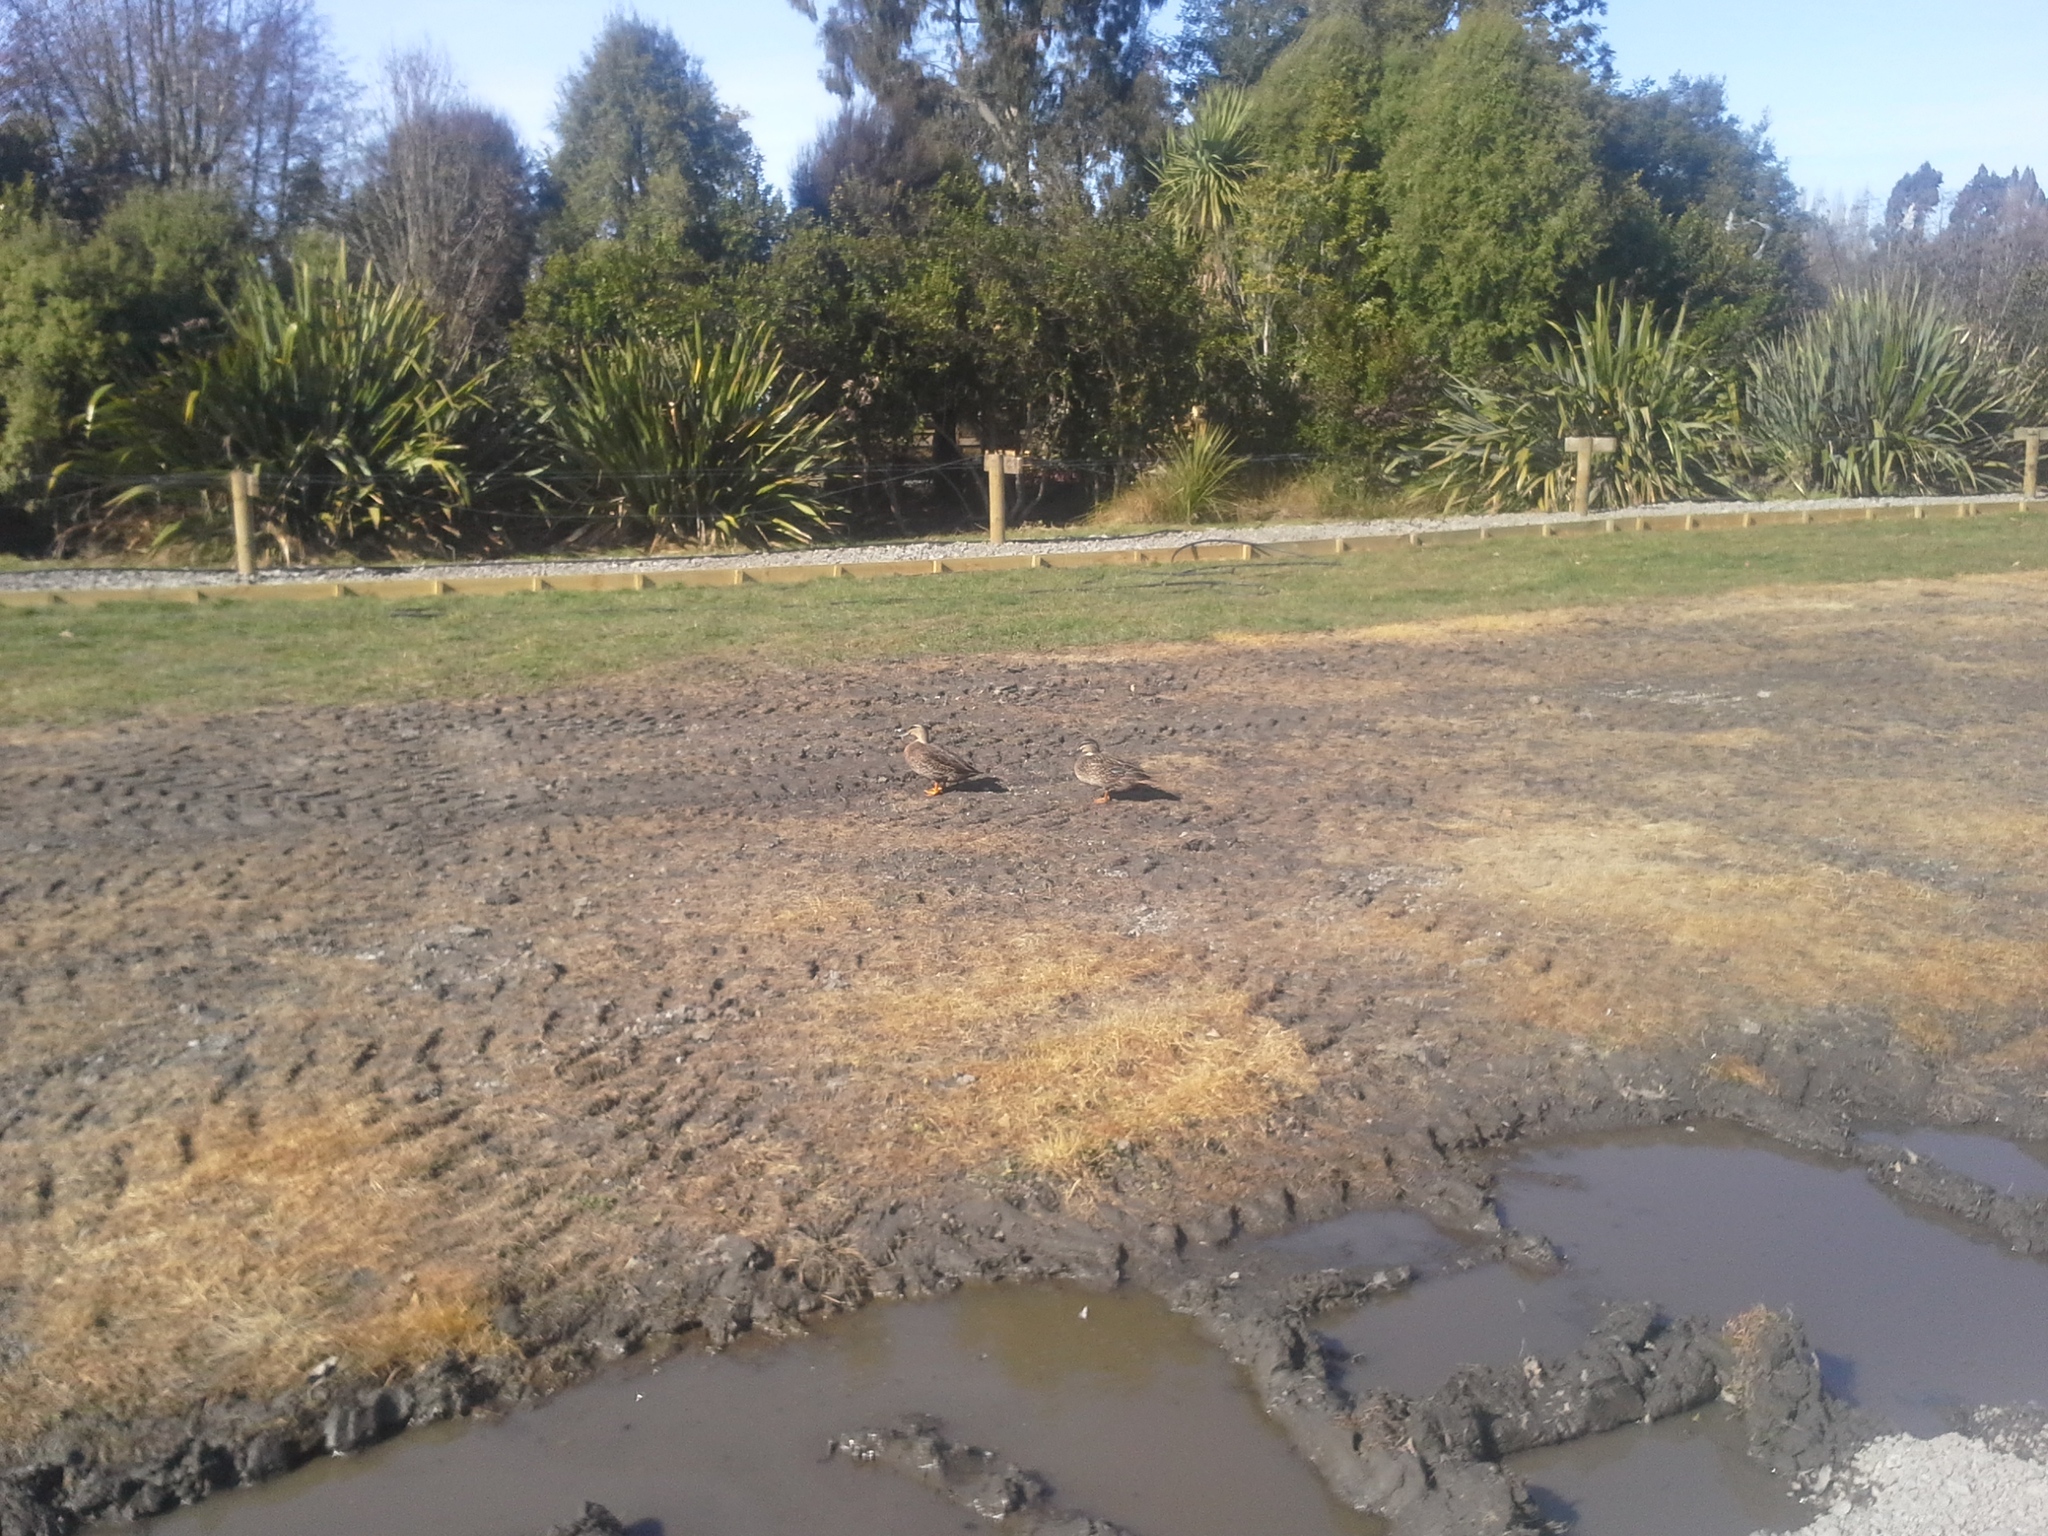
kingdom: Animalia
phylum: Chordata
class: Aves
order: Anseriformes
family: Anatidae
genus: Anas
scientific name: Anas
